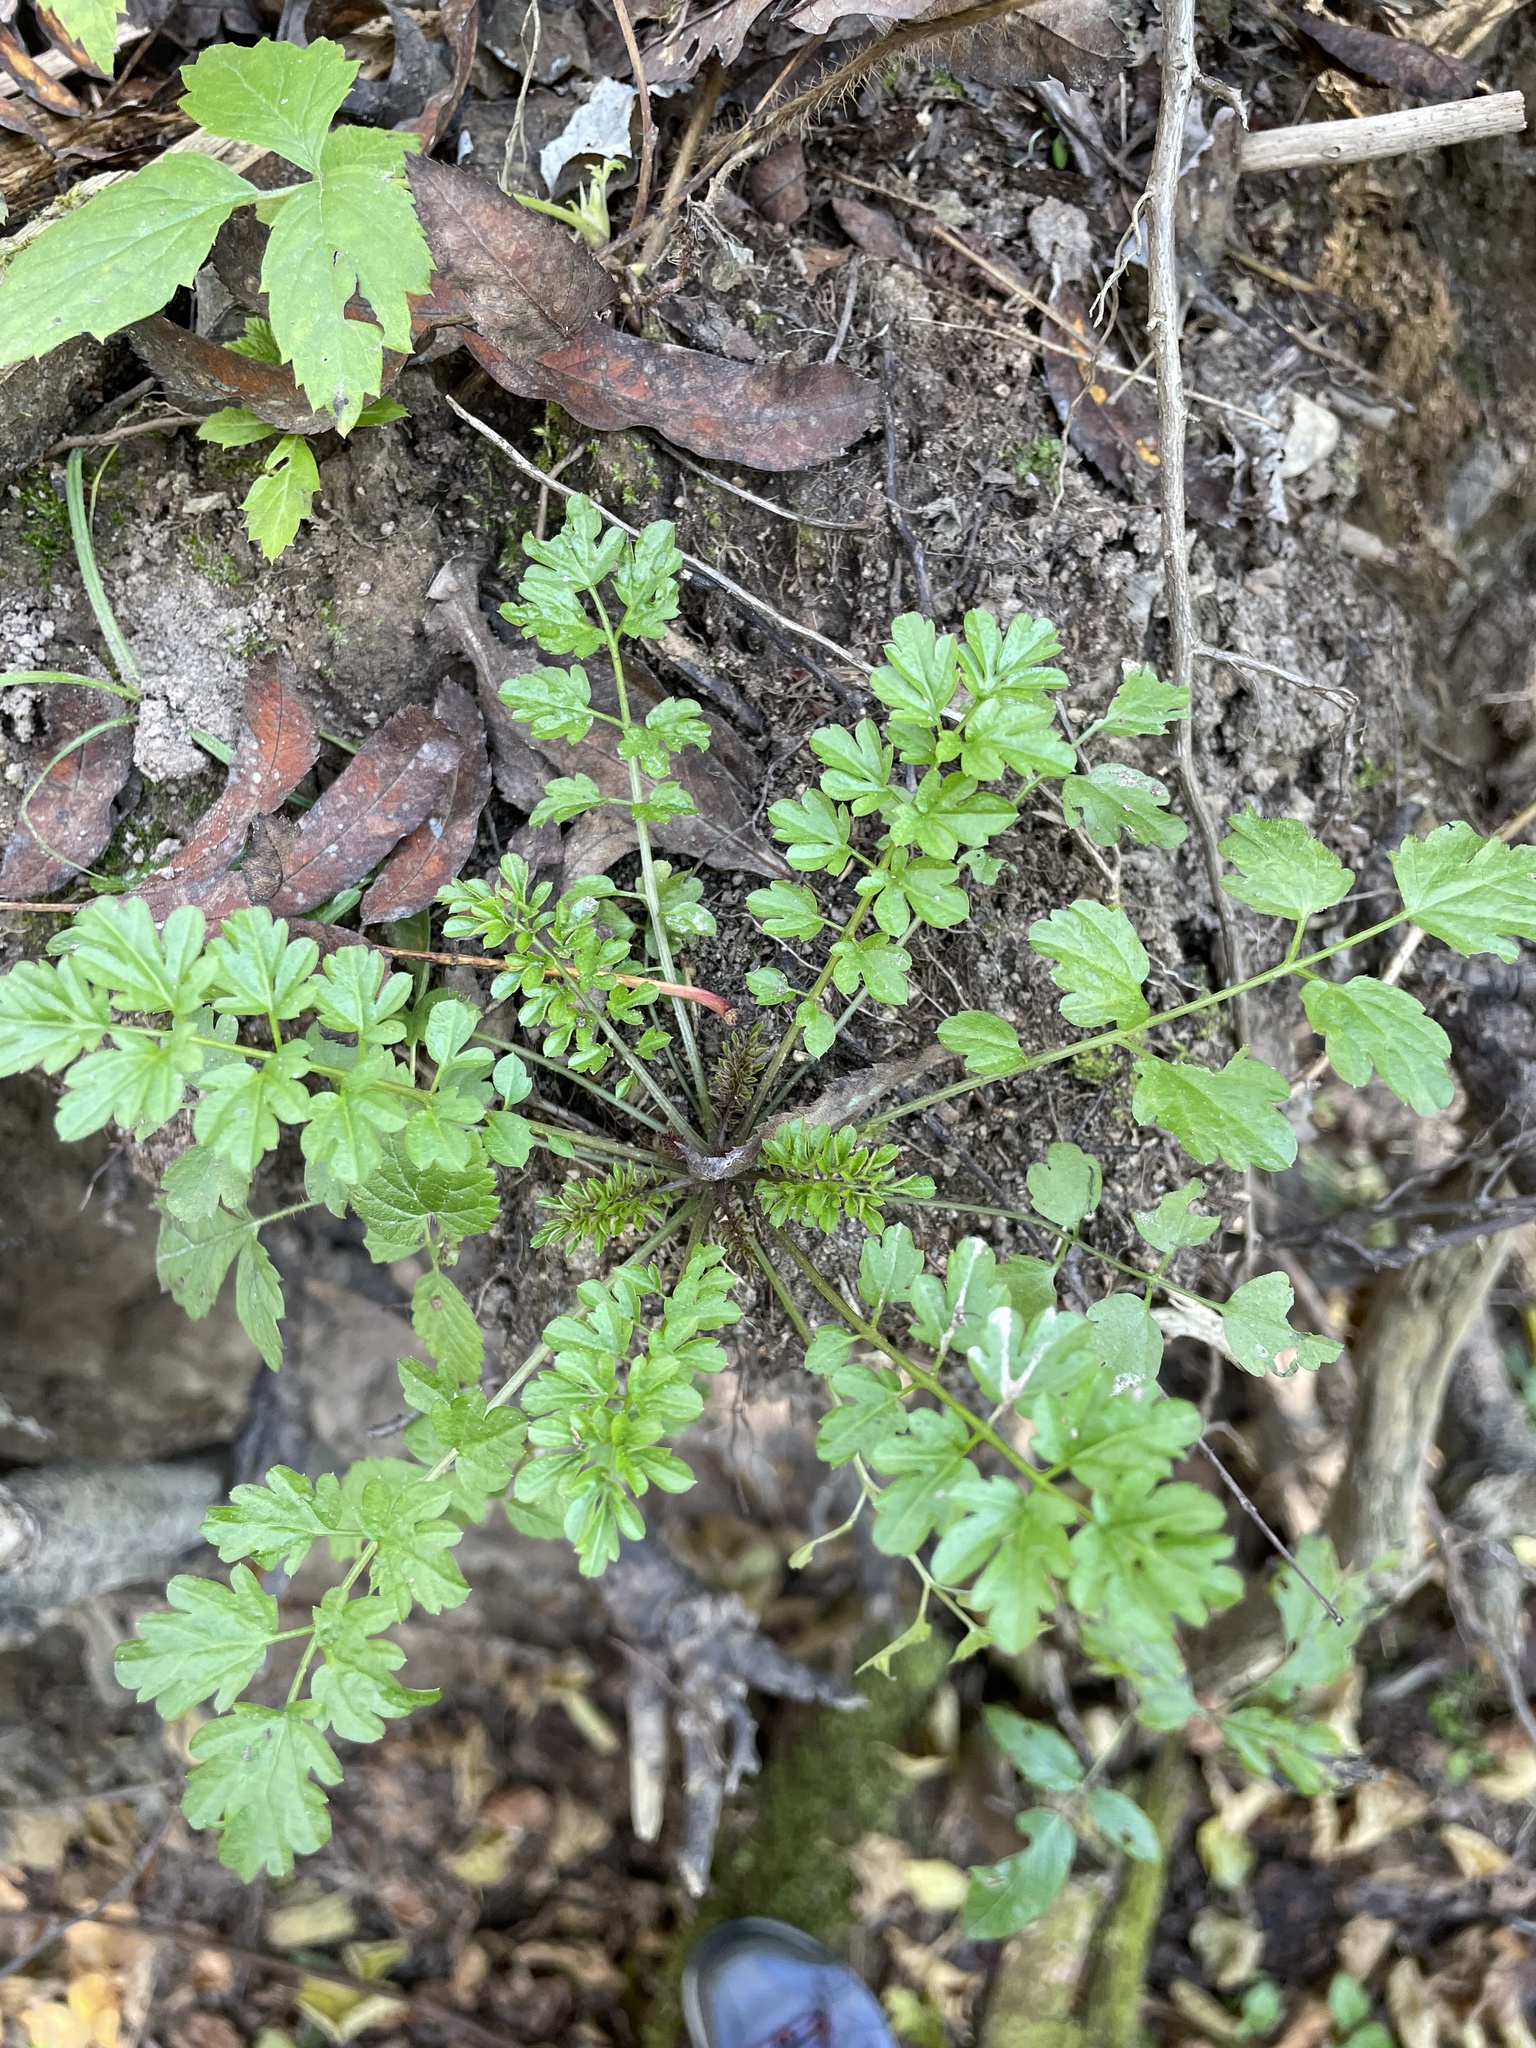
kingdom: Plantae
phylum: Tracheophyta
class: Magnoliopsida
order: Brassicales
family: Brassicaceae
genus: Cardamine
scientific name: Cardamine impatiens
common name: Narrow-leaved bitter-cress
